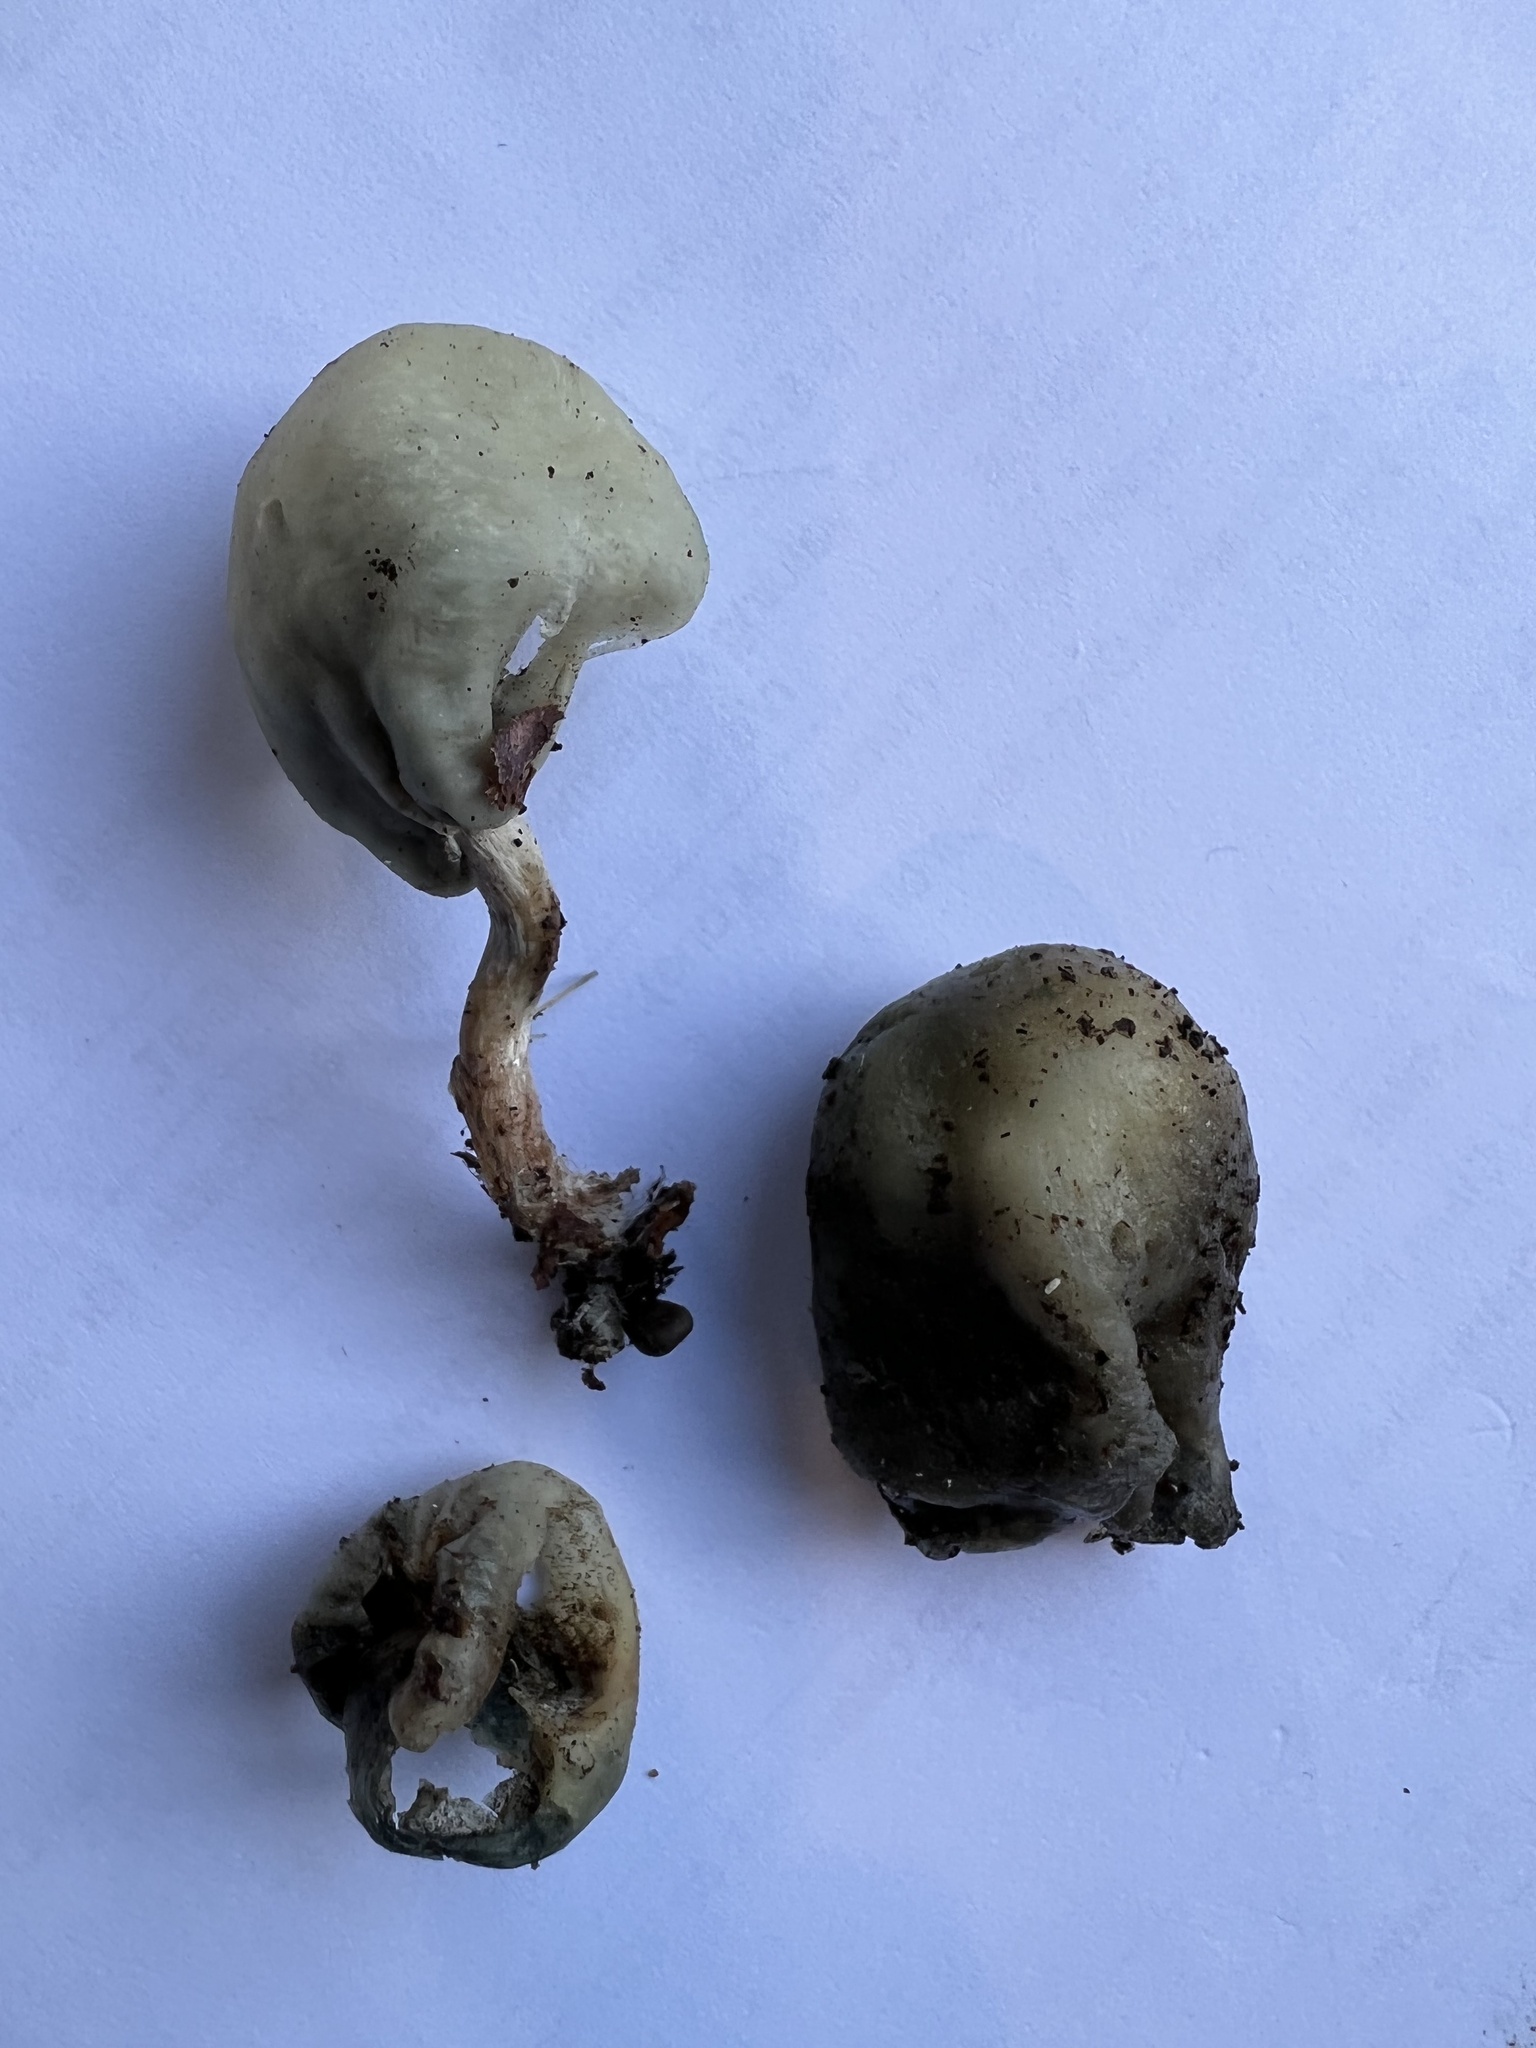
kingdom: Fungi
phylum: Basidiomycota
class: Agaricomycetes
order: Agaricales
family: Hymenogastraceae
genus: Psilocybe
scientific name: Psilocybe weraroa
